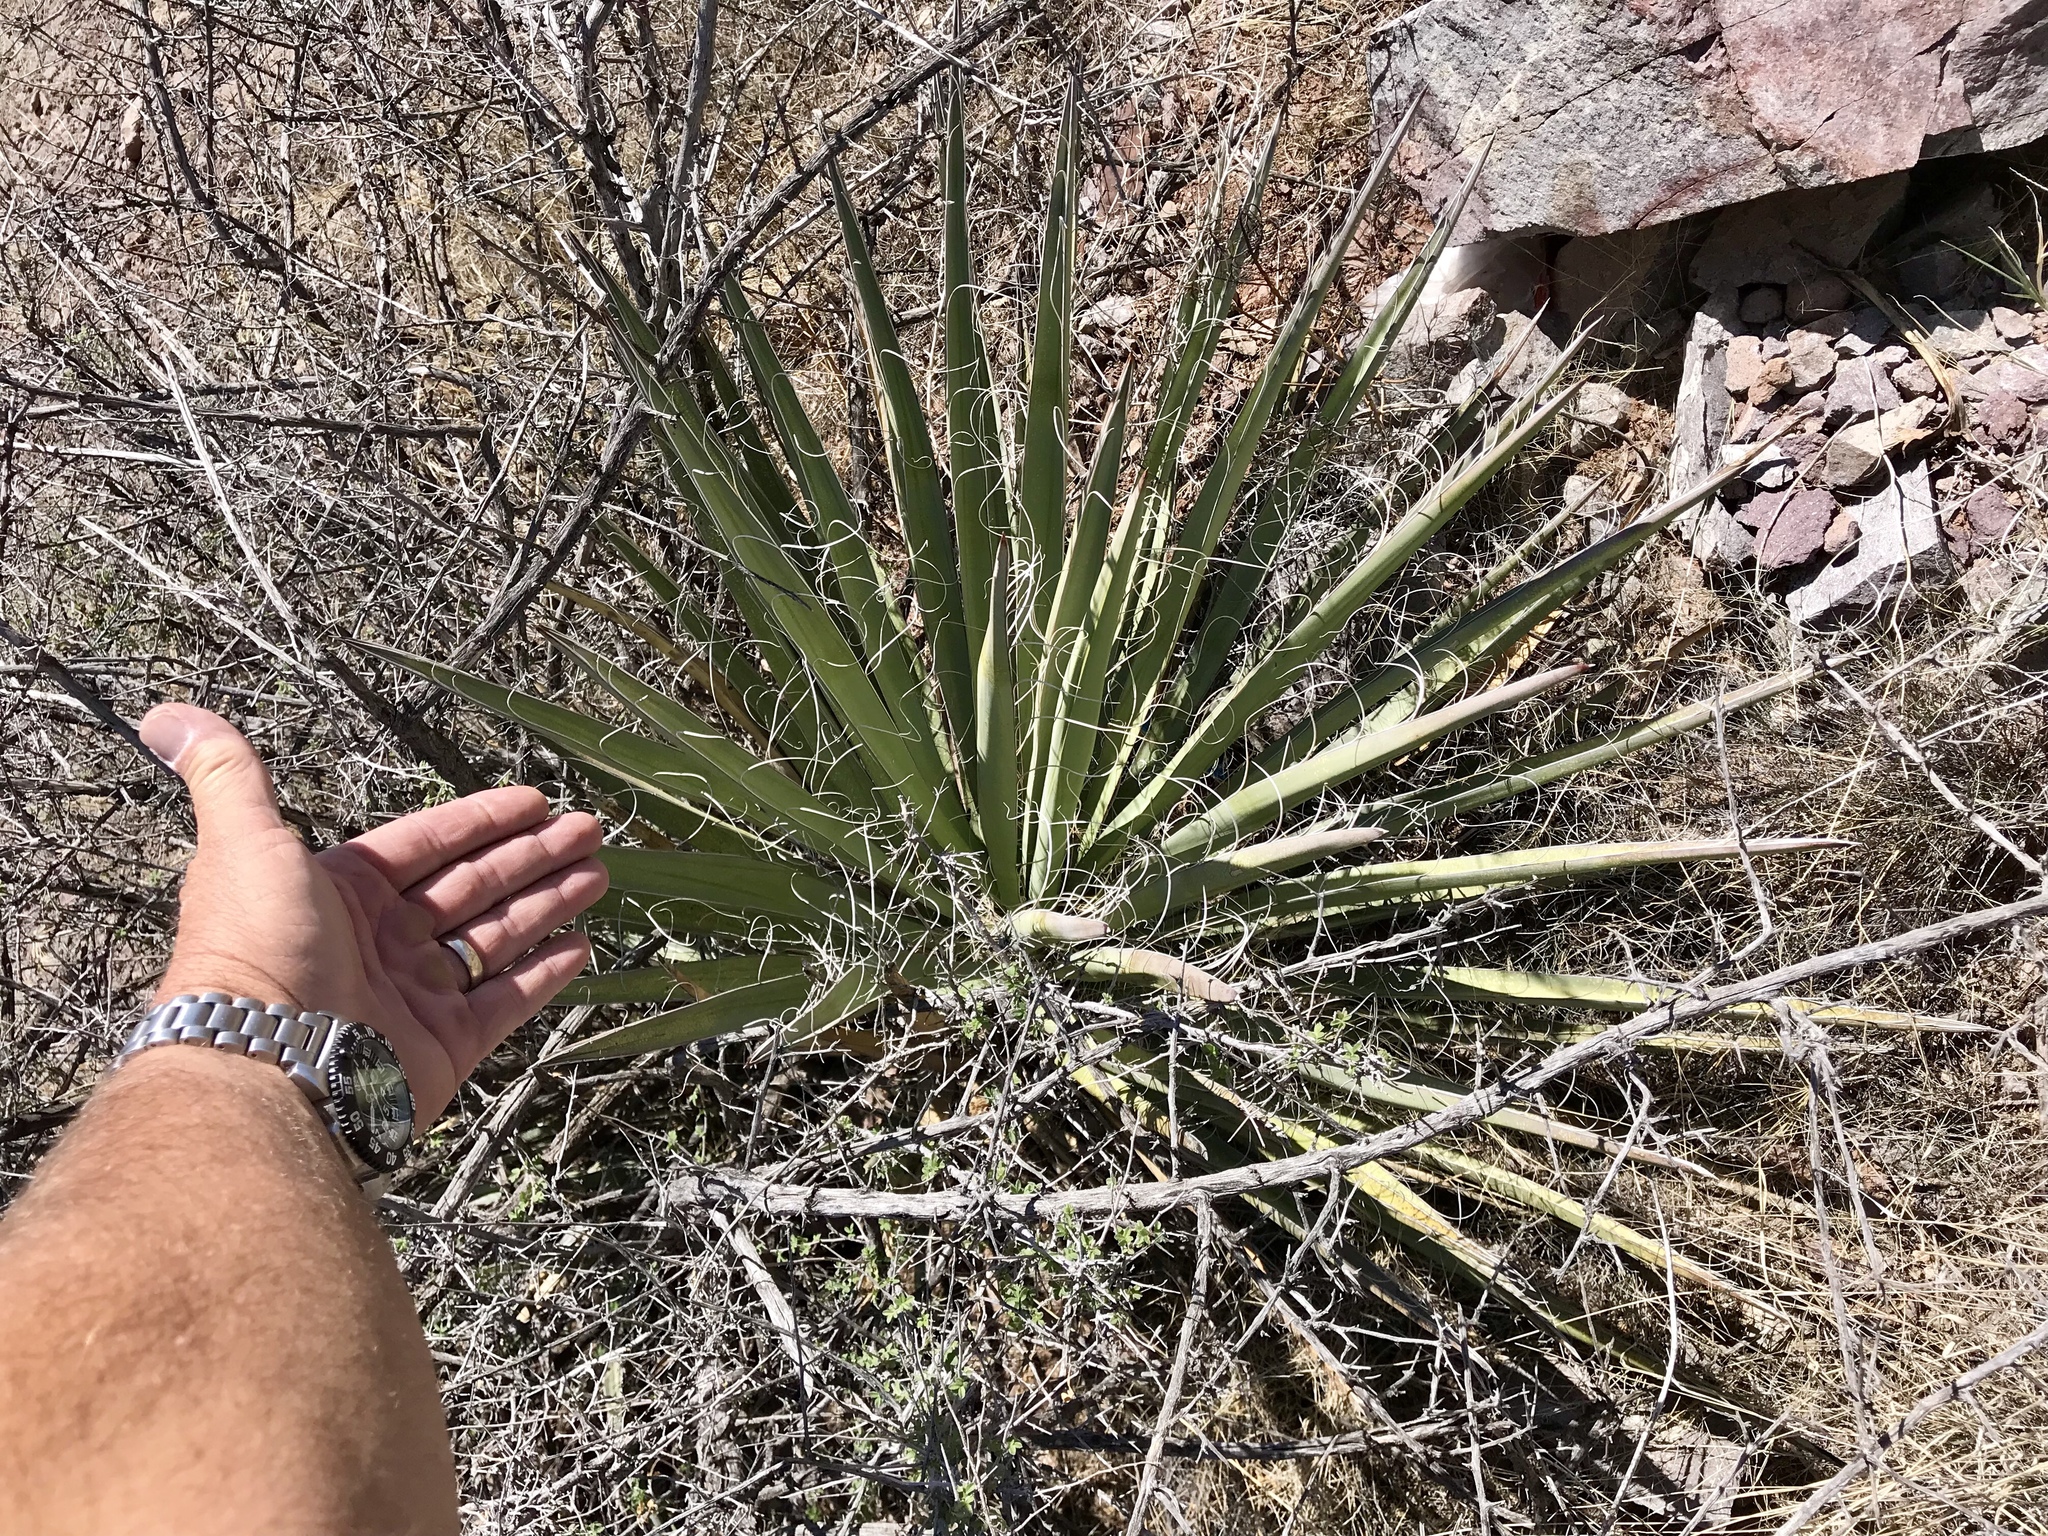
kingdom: Plantae
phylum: Tracheophyta
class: Liliopsida
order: Asparagales
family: Asparagaceae
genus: Yucca
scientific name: Yucca baccata
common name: Banana yucca
